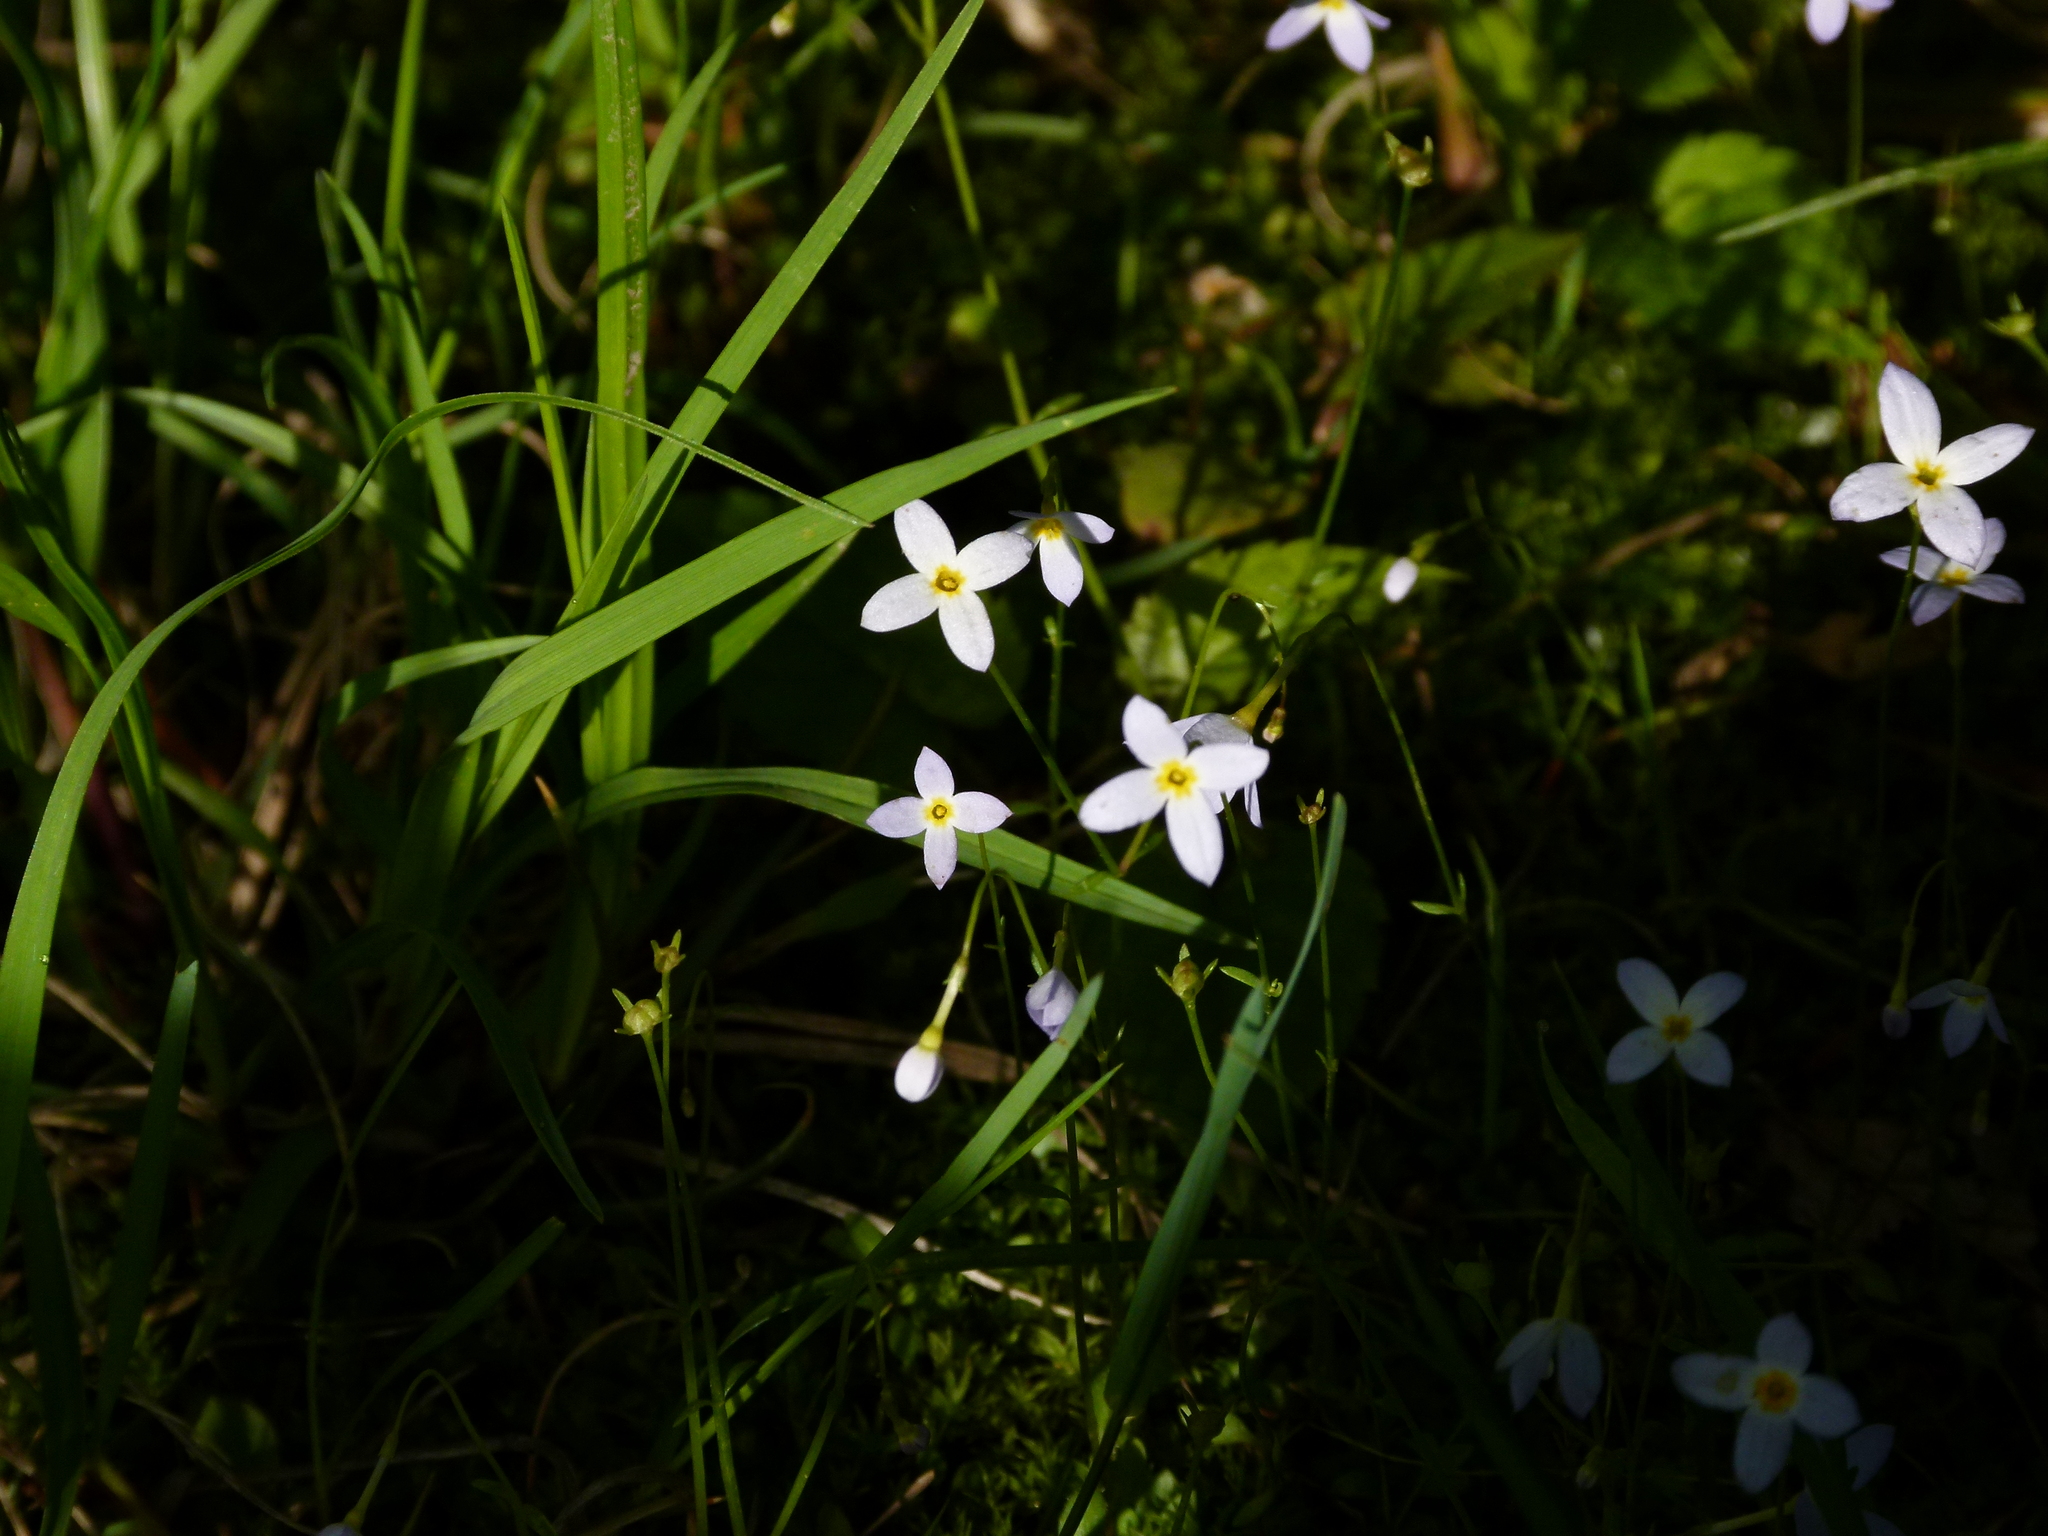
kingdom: Plantae
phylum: Tracheophyta
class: Magnoliopsida
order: Gentianales
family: Rubiaceae
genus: Houstonia
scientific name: Houstonia caerulea
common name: Bluets
